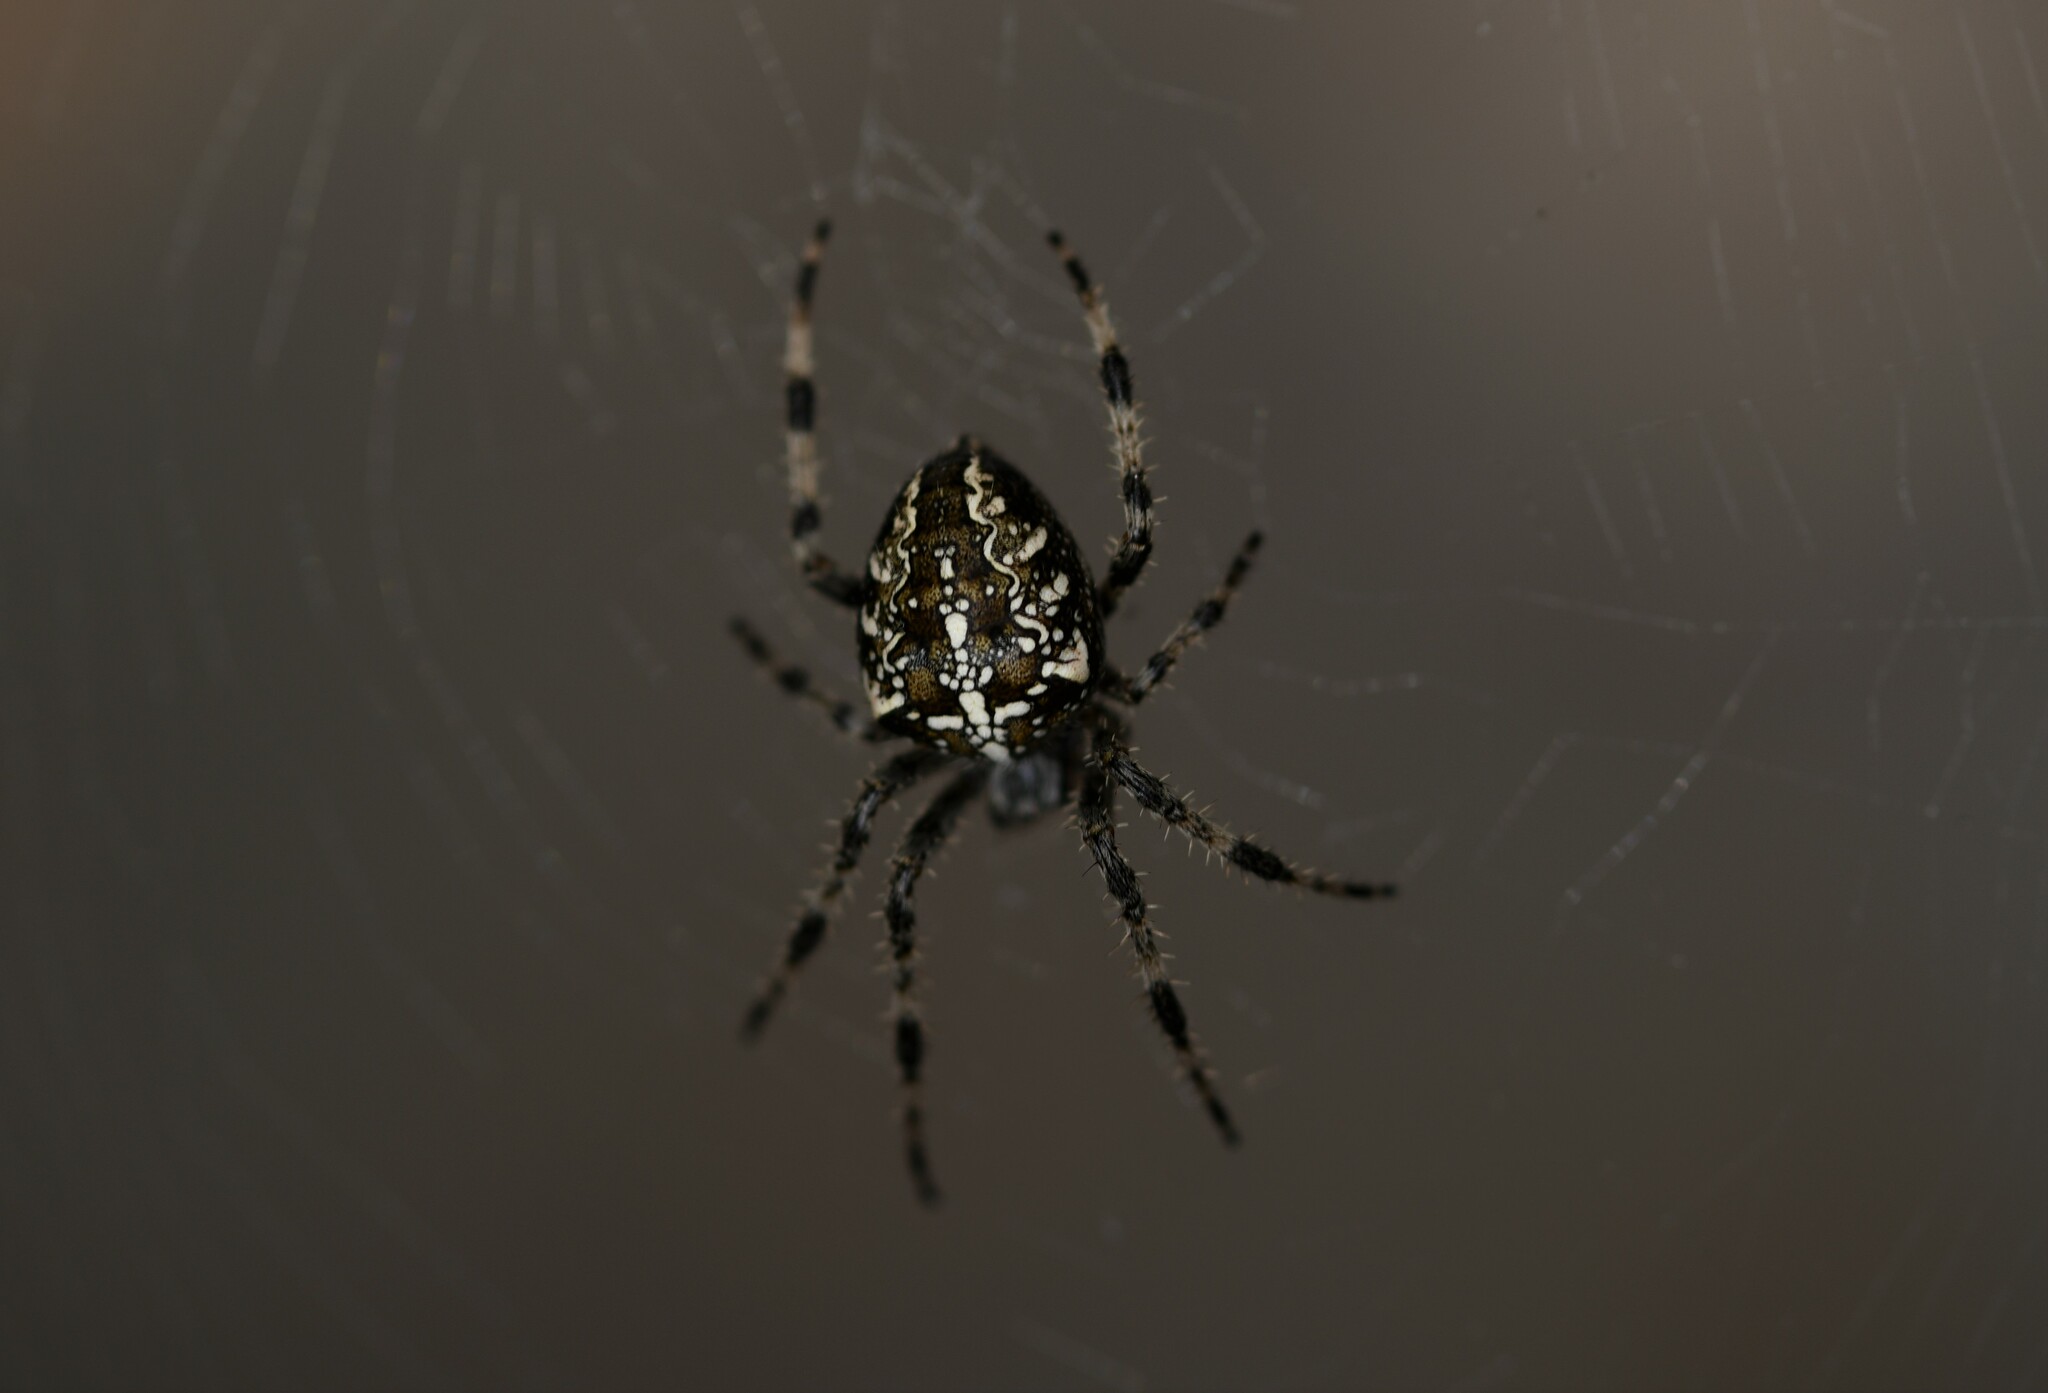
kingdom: Animalia
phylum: Arthropoda
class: Arachnida
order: Araneae
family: Araneidae
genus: Araneus
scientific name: Araneus diadematus
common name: Cross orbweaver
